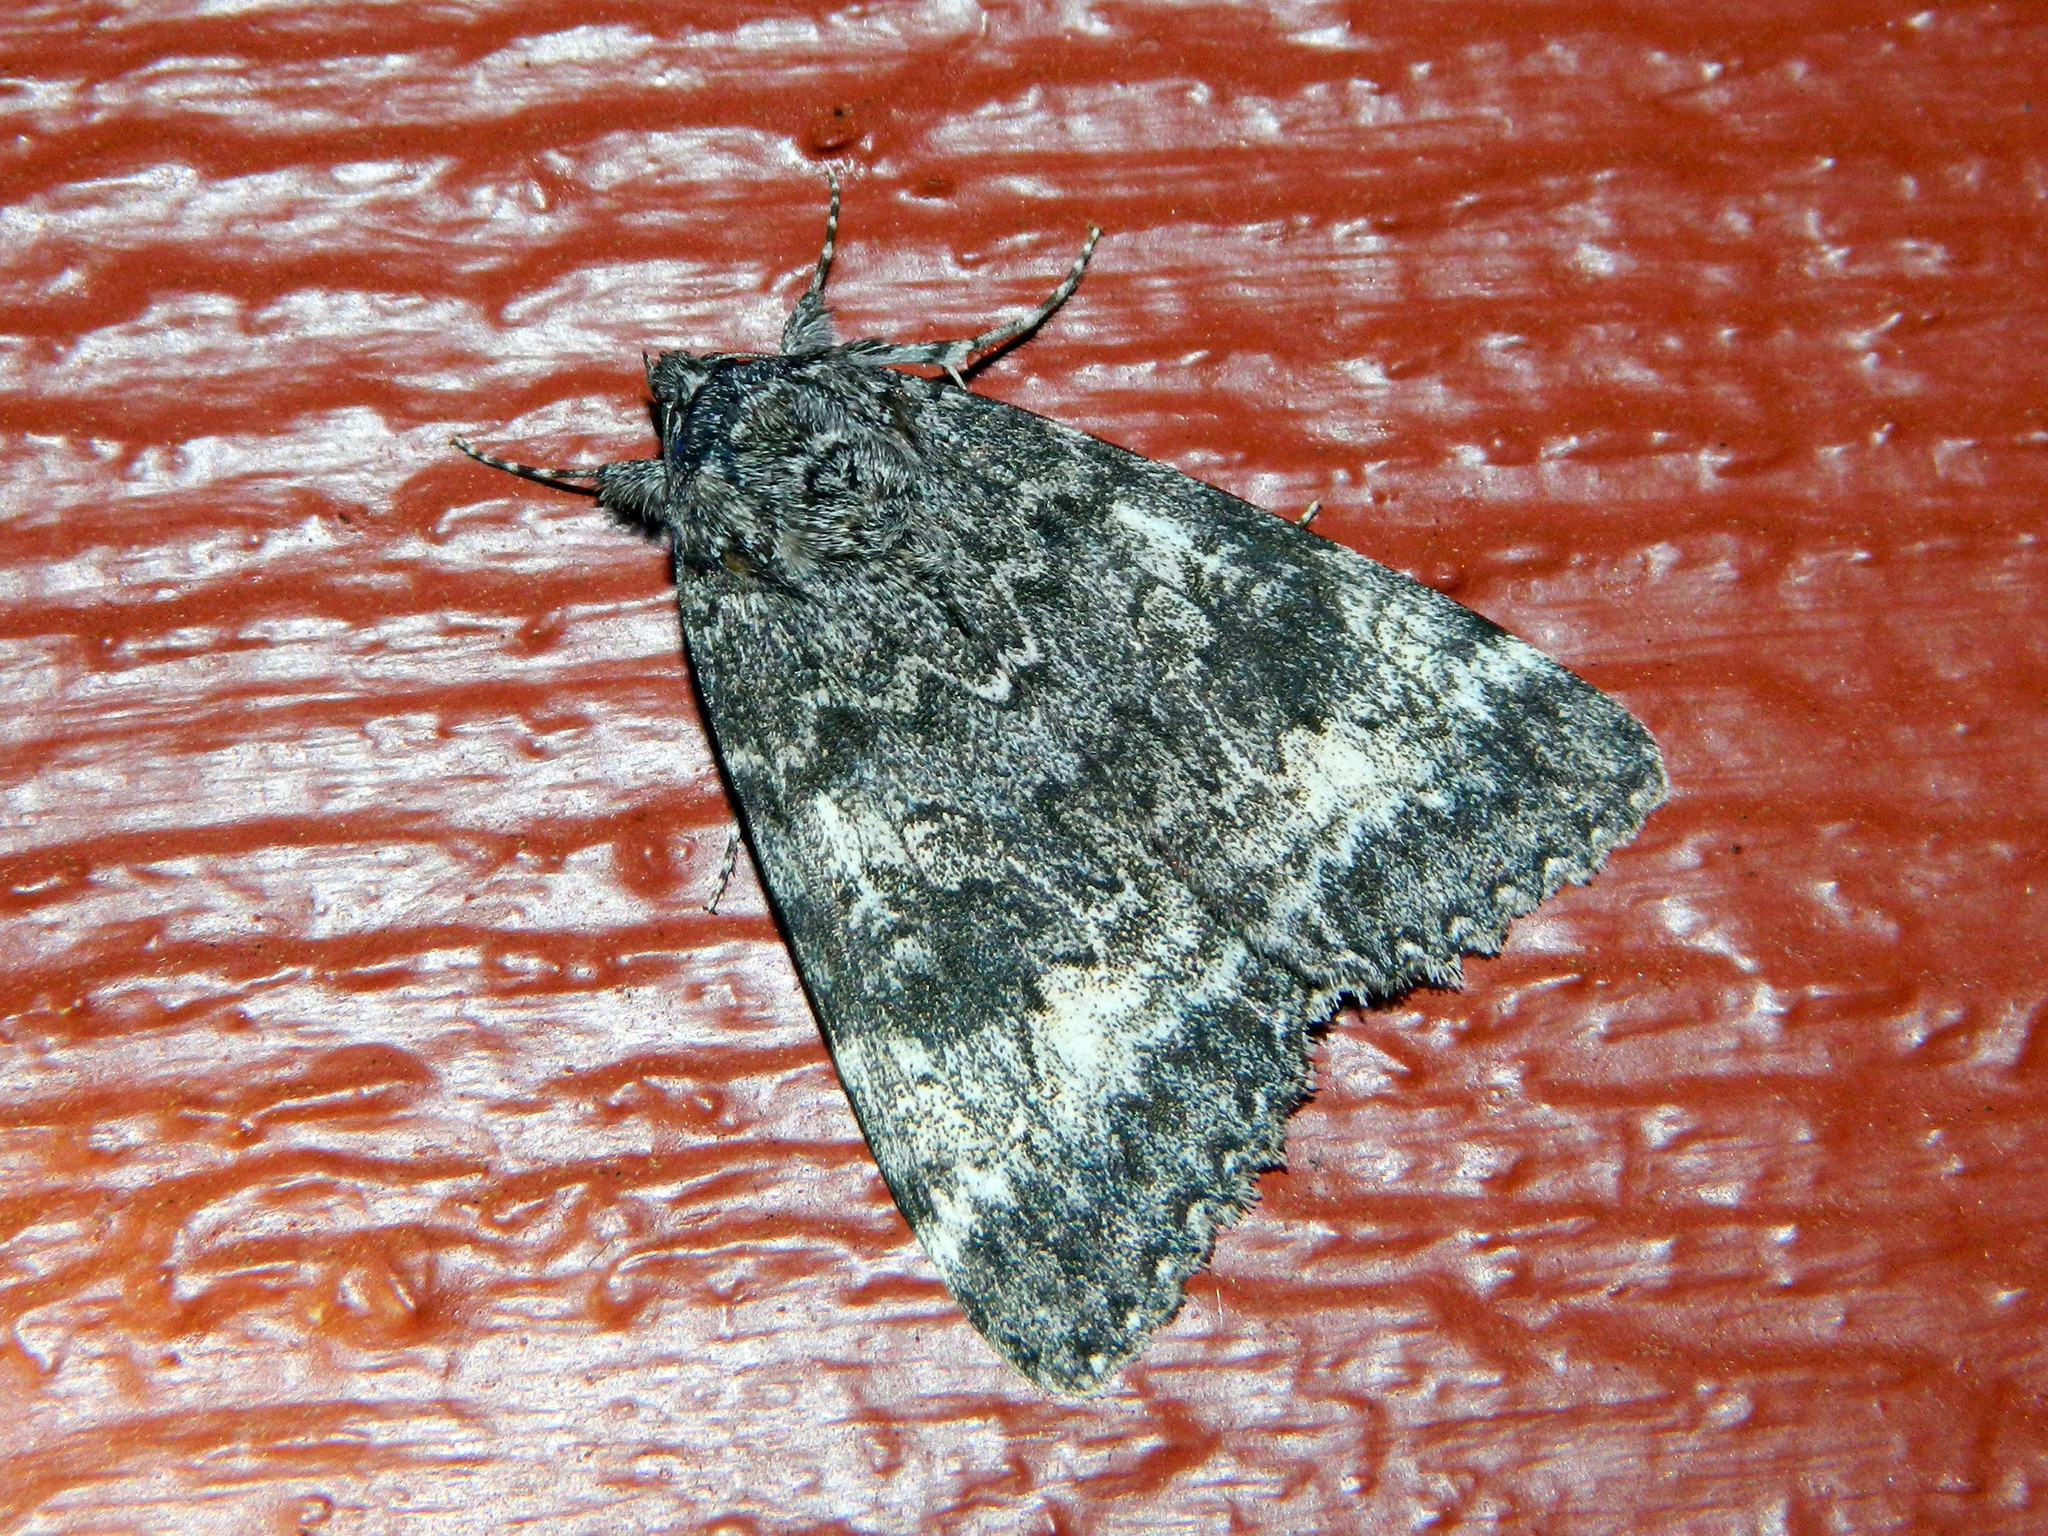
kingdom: Animalia
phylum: Arthropoda
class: Insecta
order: Lepidoptera
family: Erebidae
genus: Catocala
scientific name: Catocala briseis
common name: Briseis underwing
